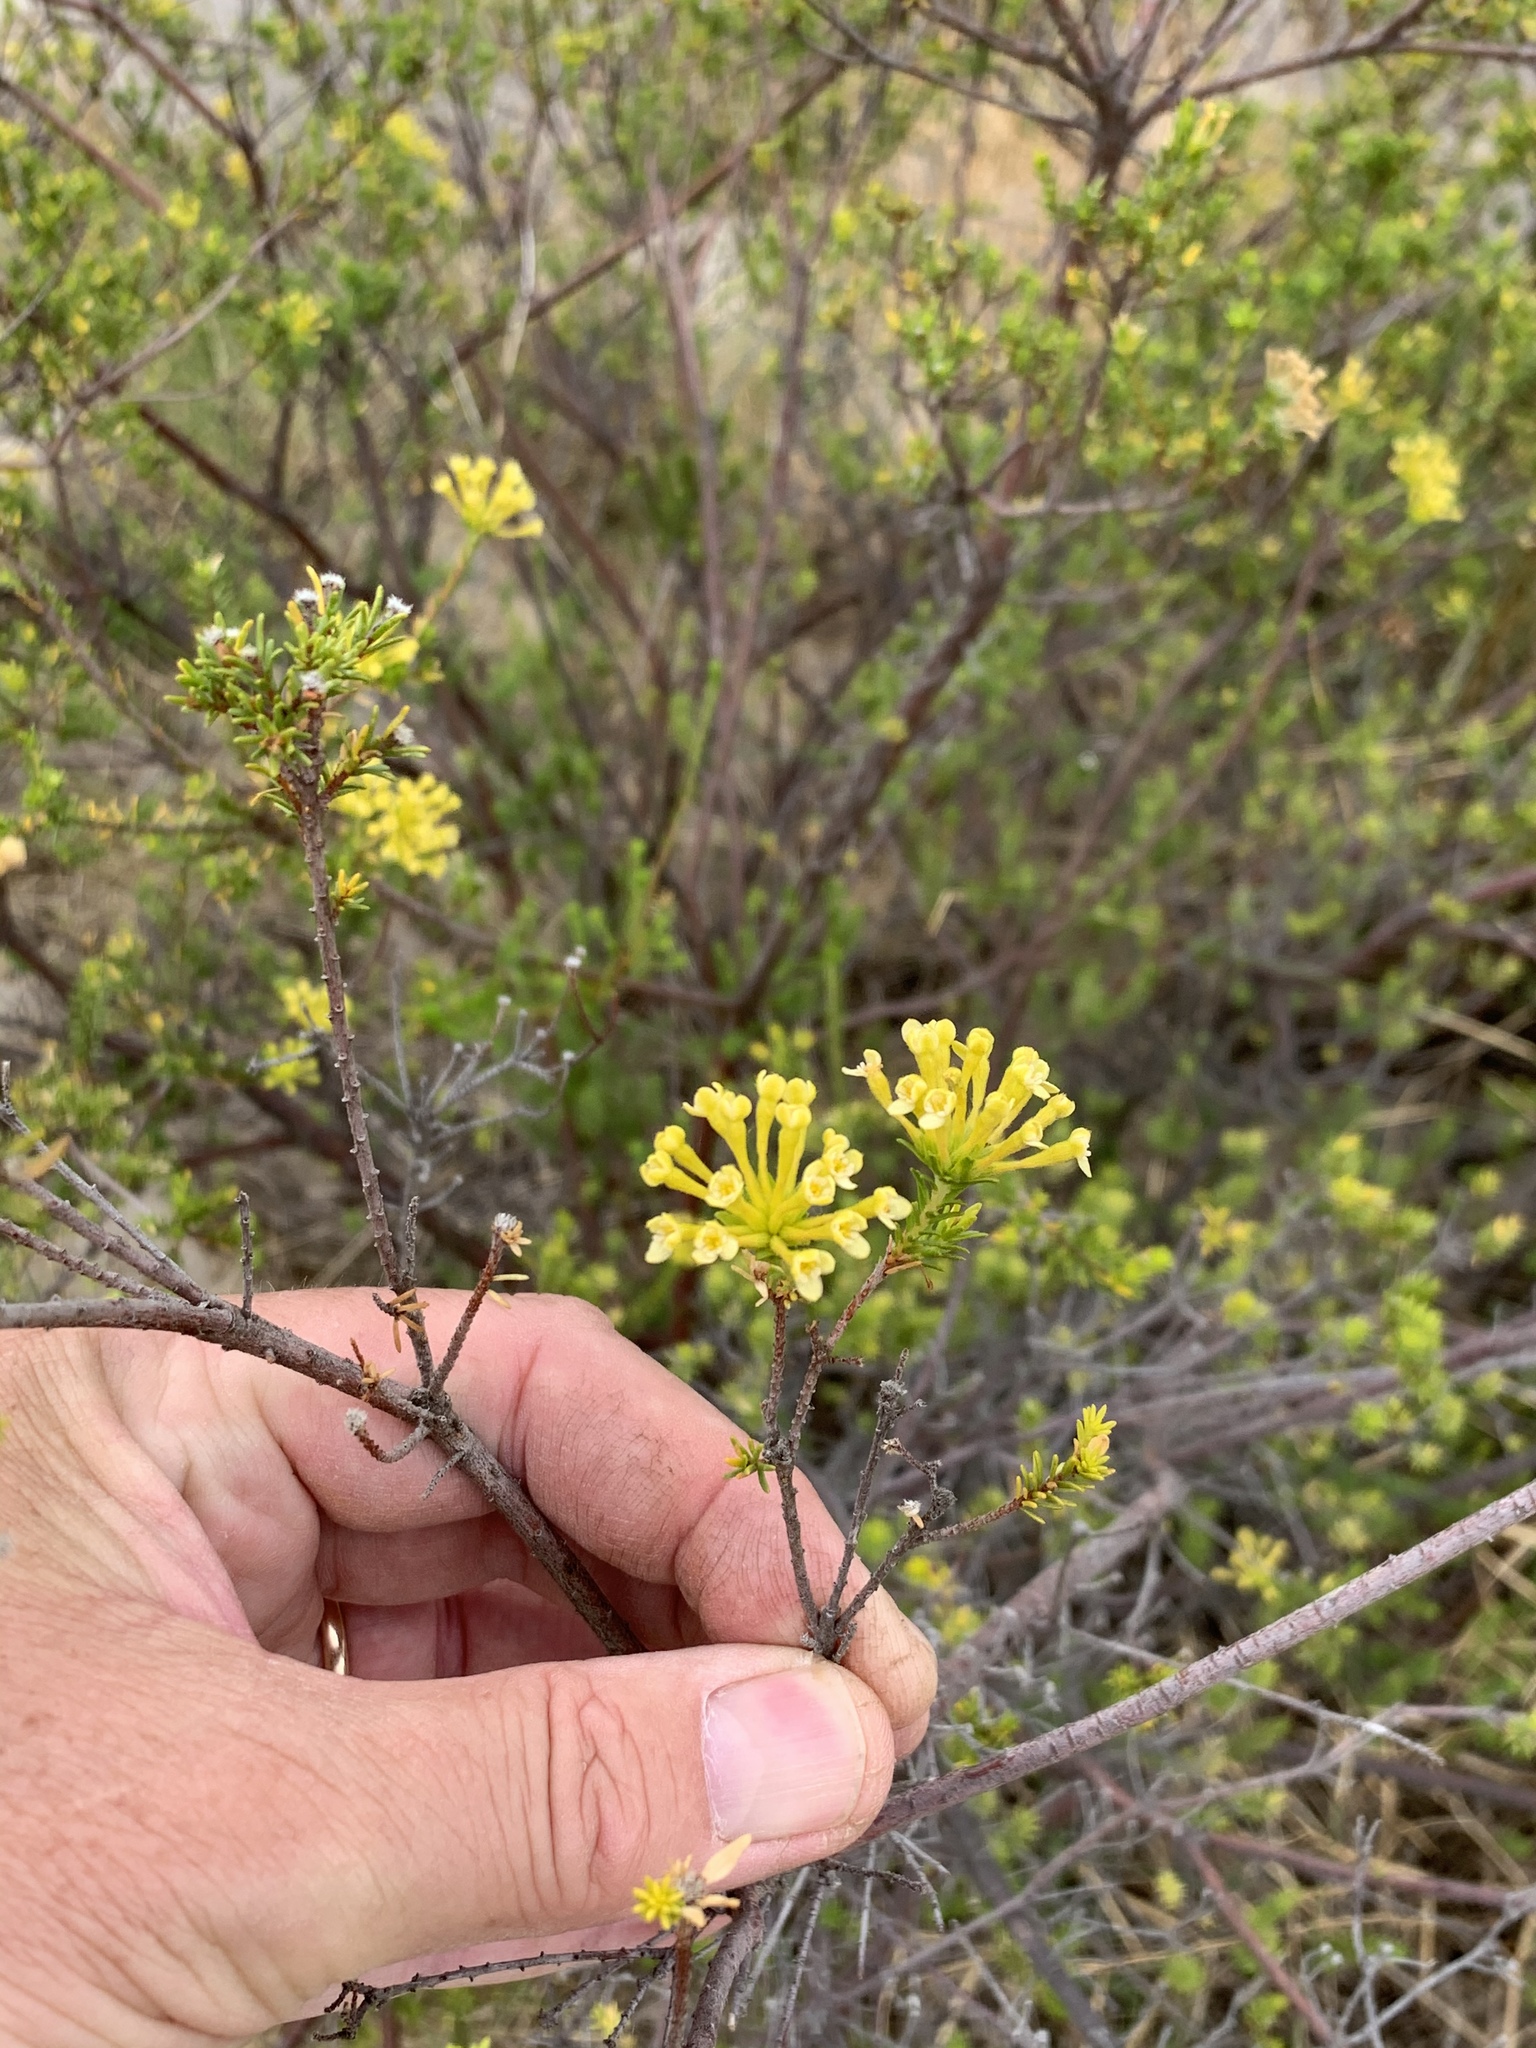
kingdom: Plantae
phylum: Tracheophyta
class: Magnoliopsida
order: Malvales
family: Thymelaeaceae
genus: Gnidia
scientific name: Gnidia squarrosa
